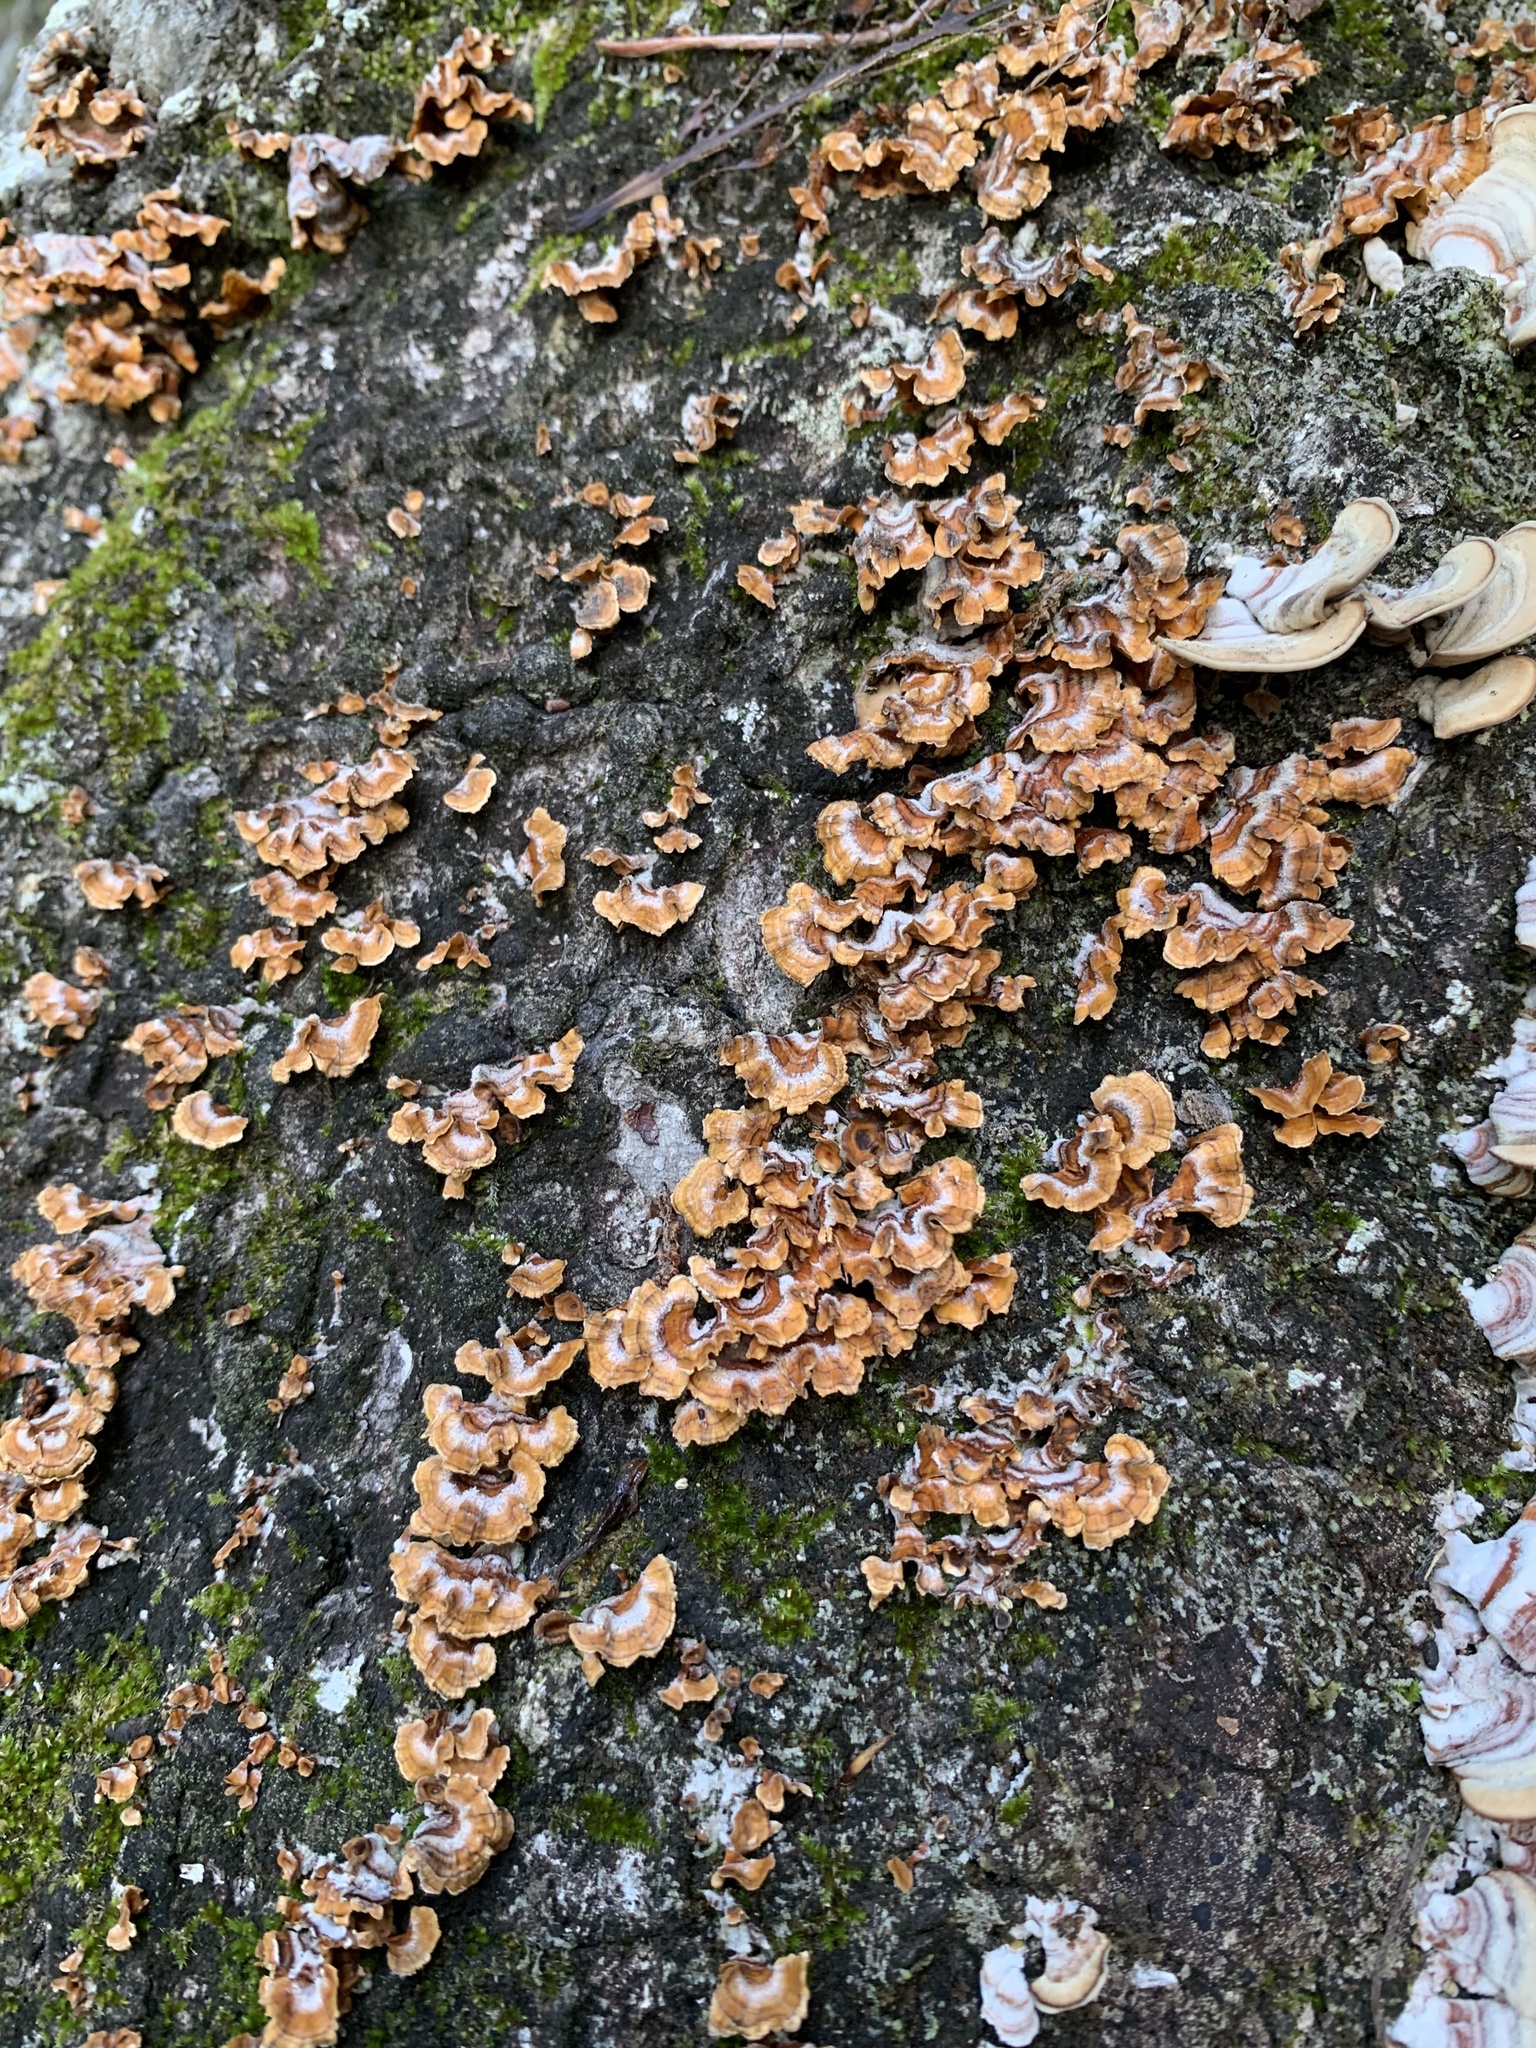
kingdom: Fungi
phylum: Basidiomycota
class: Agaricomycetes
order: Russulales
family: Stereaceae
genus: Stereum
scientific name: Stereum complicatum
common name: Crowded parchment
